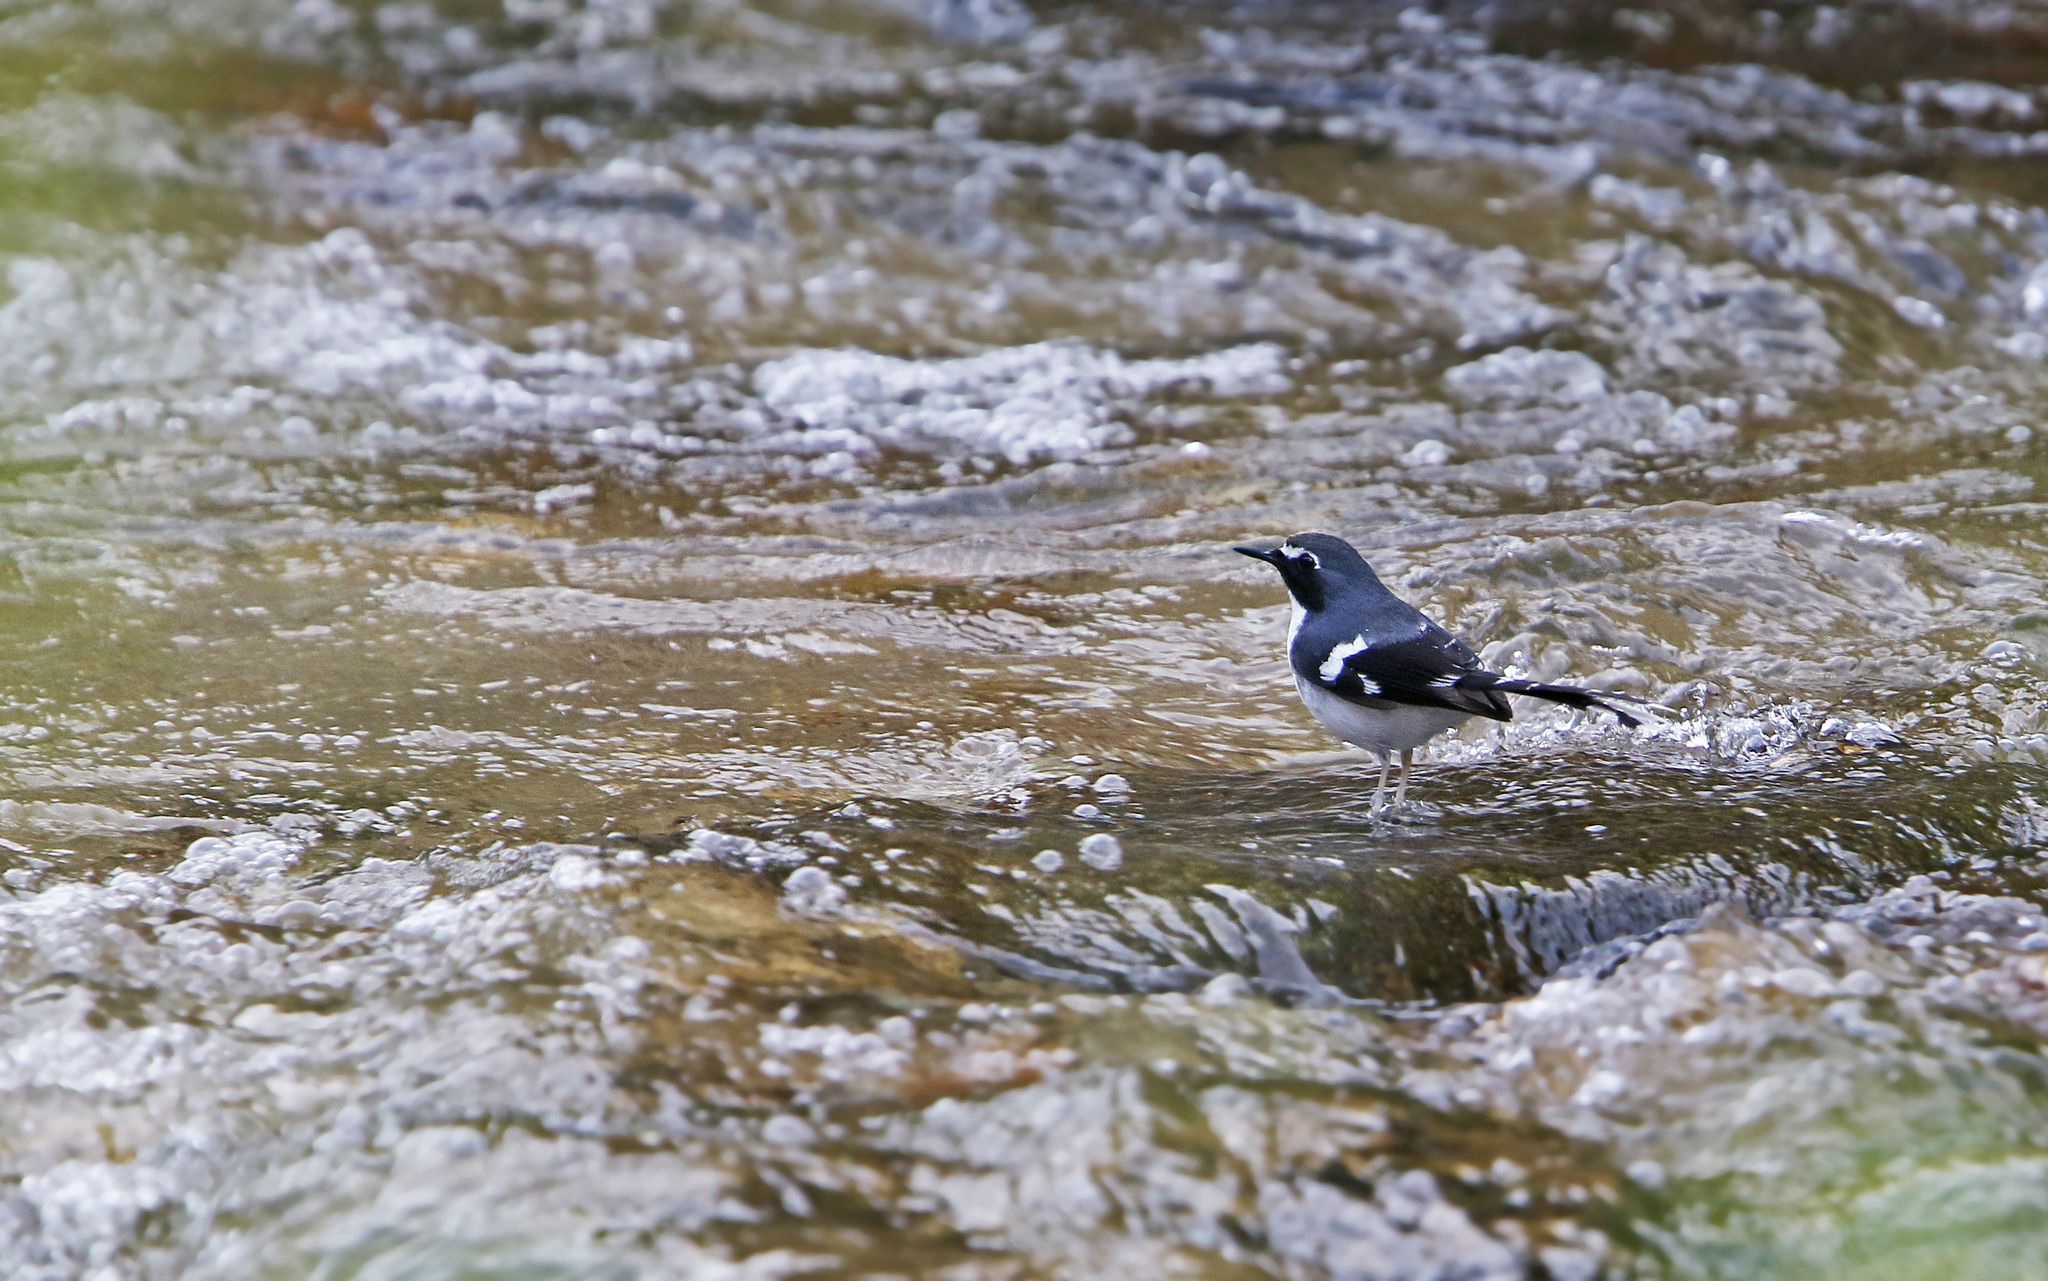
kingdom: Animalia
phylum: Chordata
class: Aves
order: Passeriformes
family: Muscicapidae
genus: Enicurus
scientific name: Enicurus schistaceus
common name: Slaty-backed forktail
